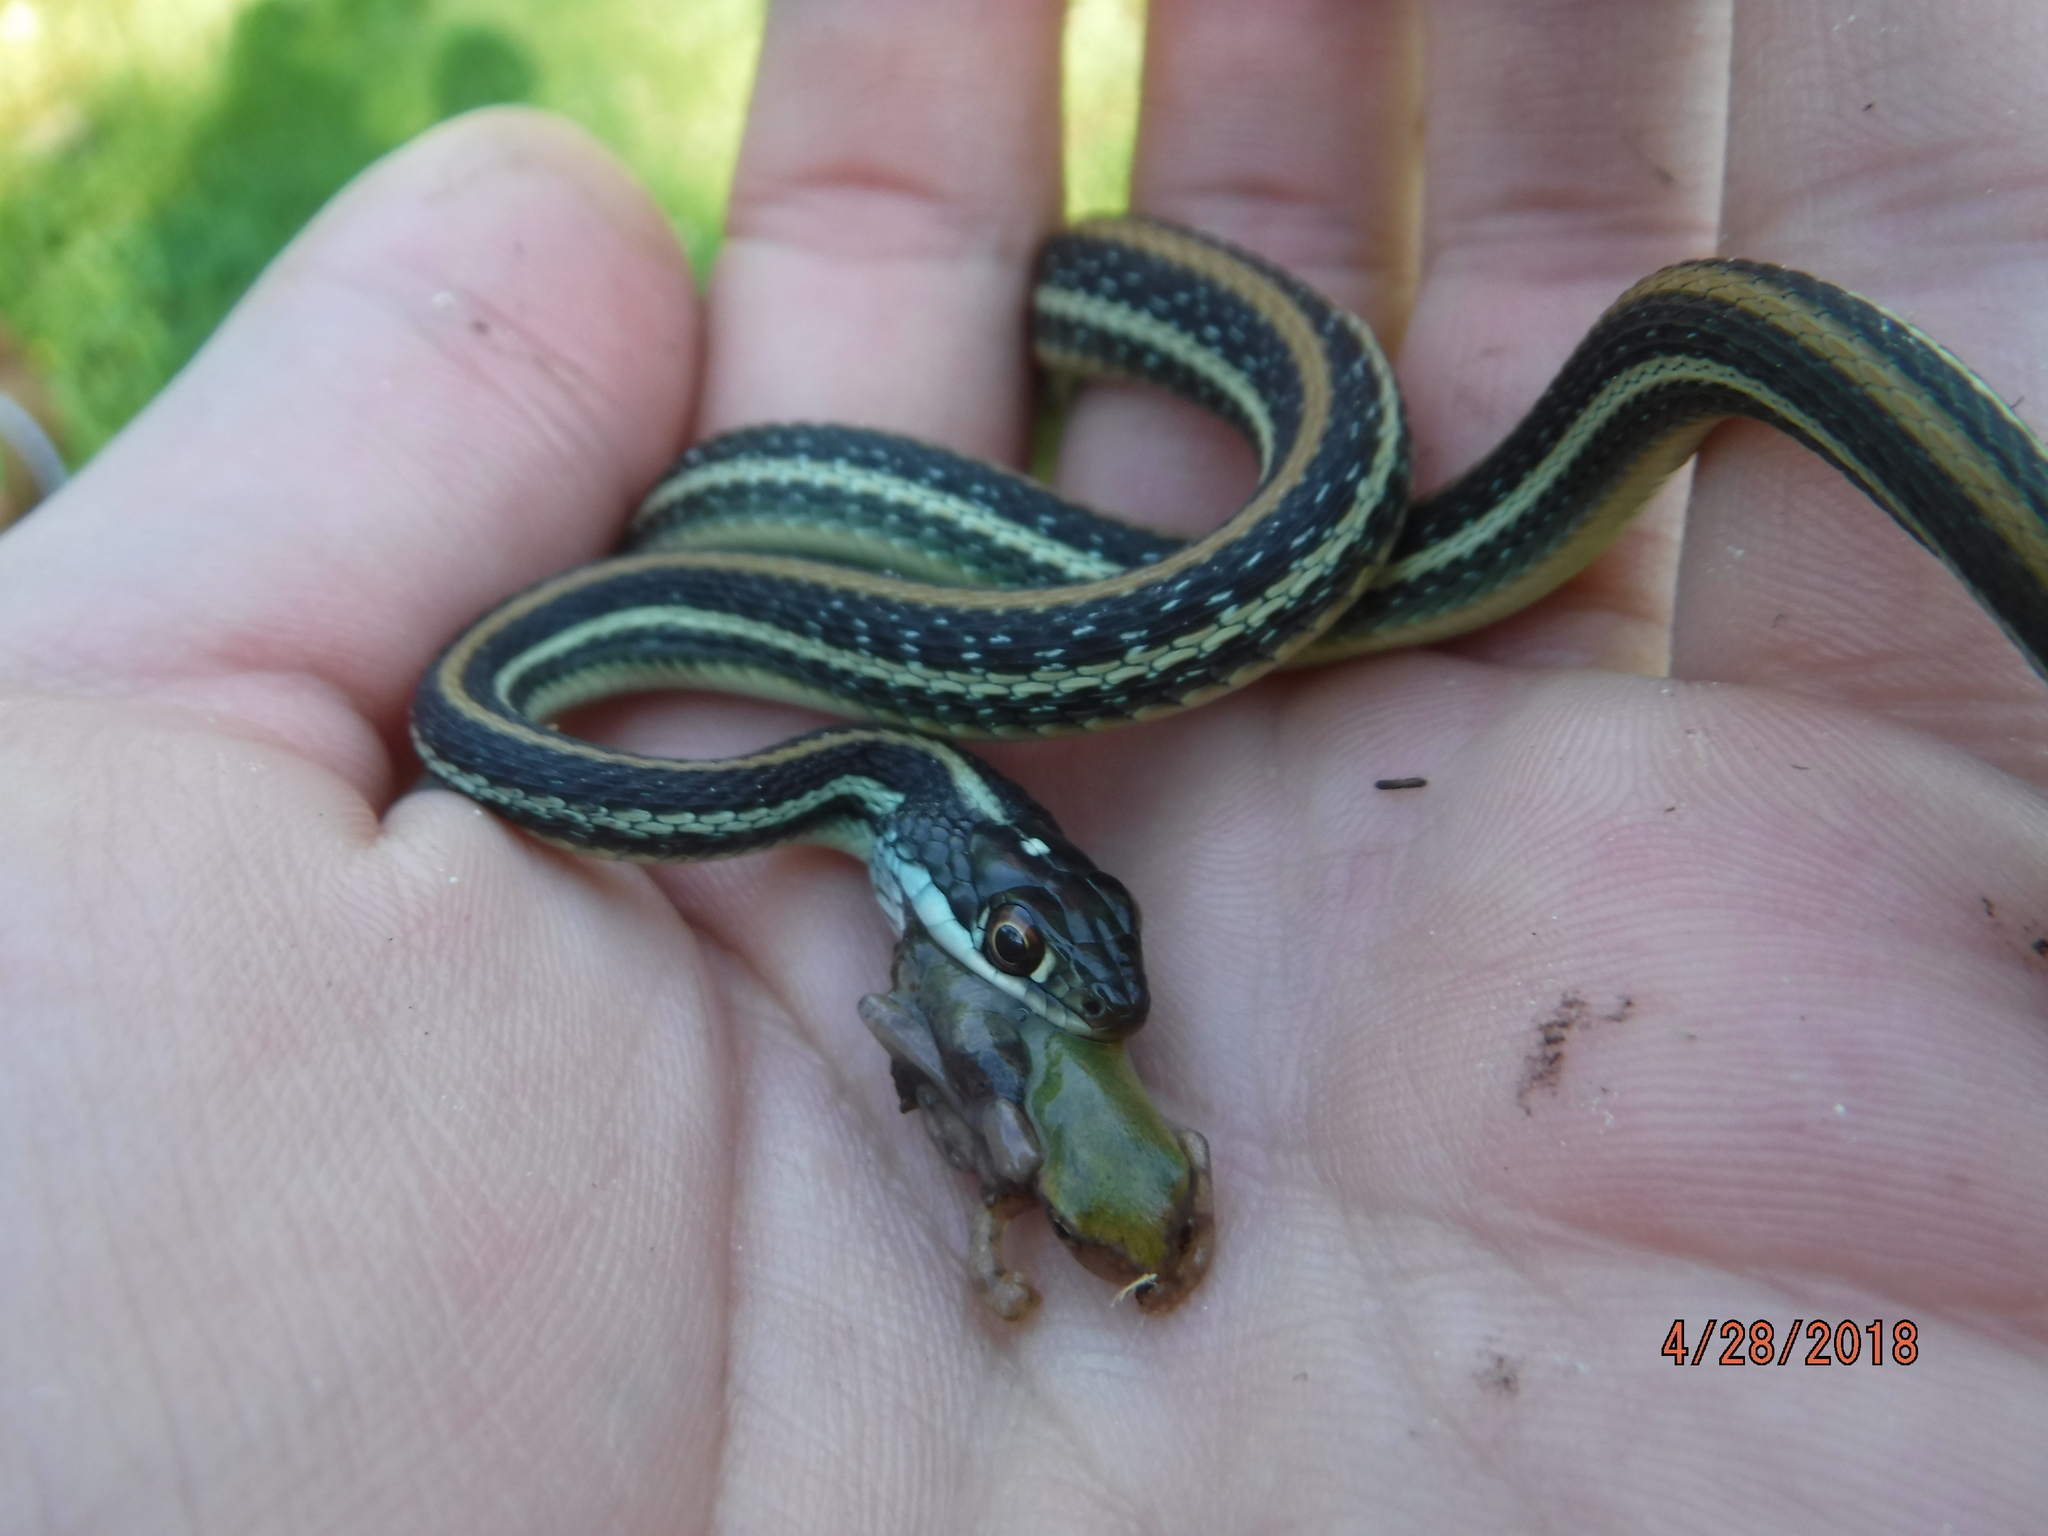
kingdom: Animalia
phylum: Chordata
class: Squamata
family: Colubridae
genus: Thamnophis
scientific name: Thamnophis proximus
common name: Western ribbon snake
